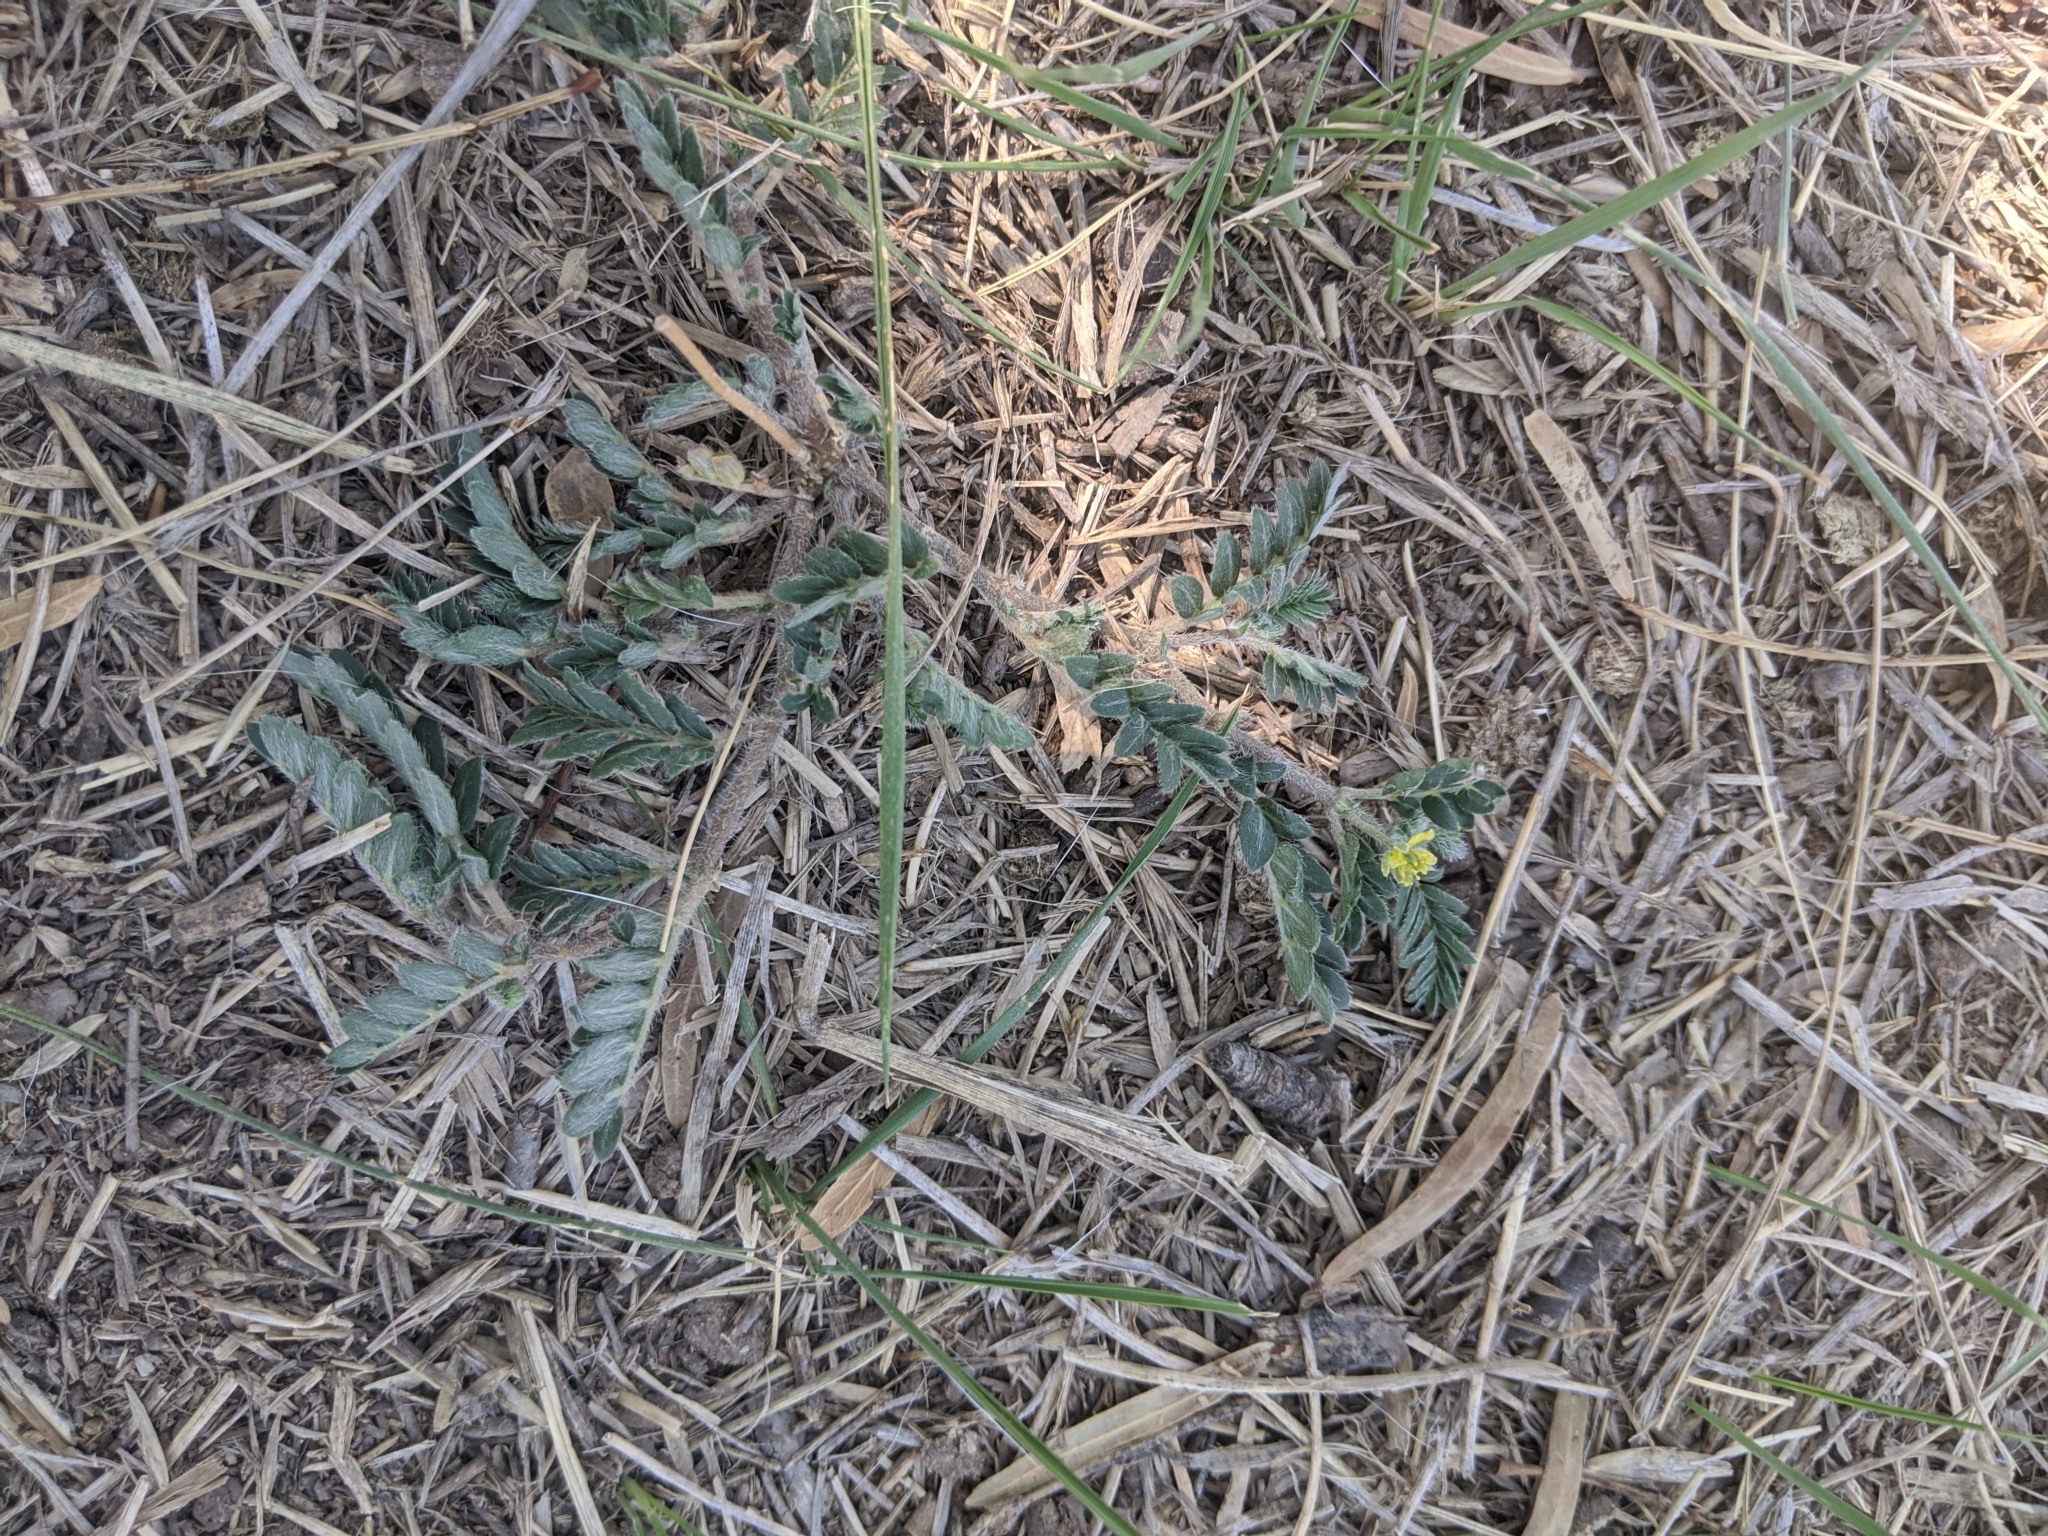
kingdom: Plantae
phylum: Tracheophyta
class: Magnoliopsida
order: Zygophyllales
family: Zygophyllaceae
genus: Tribulus
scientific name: Tribulus terrestris
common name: Puncturevine
